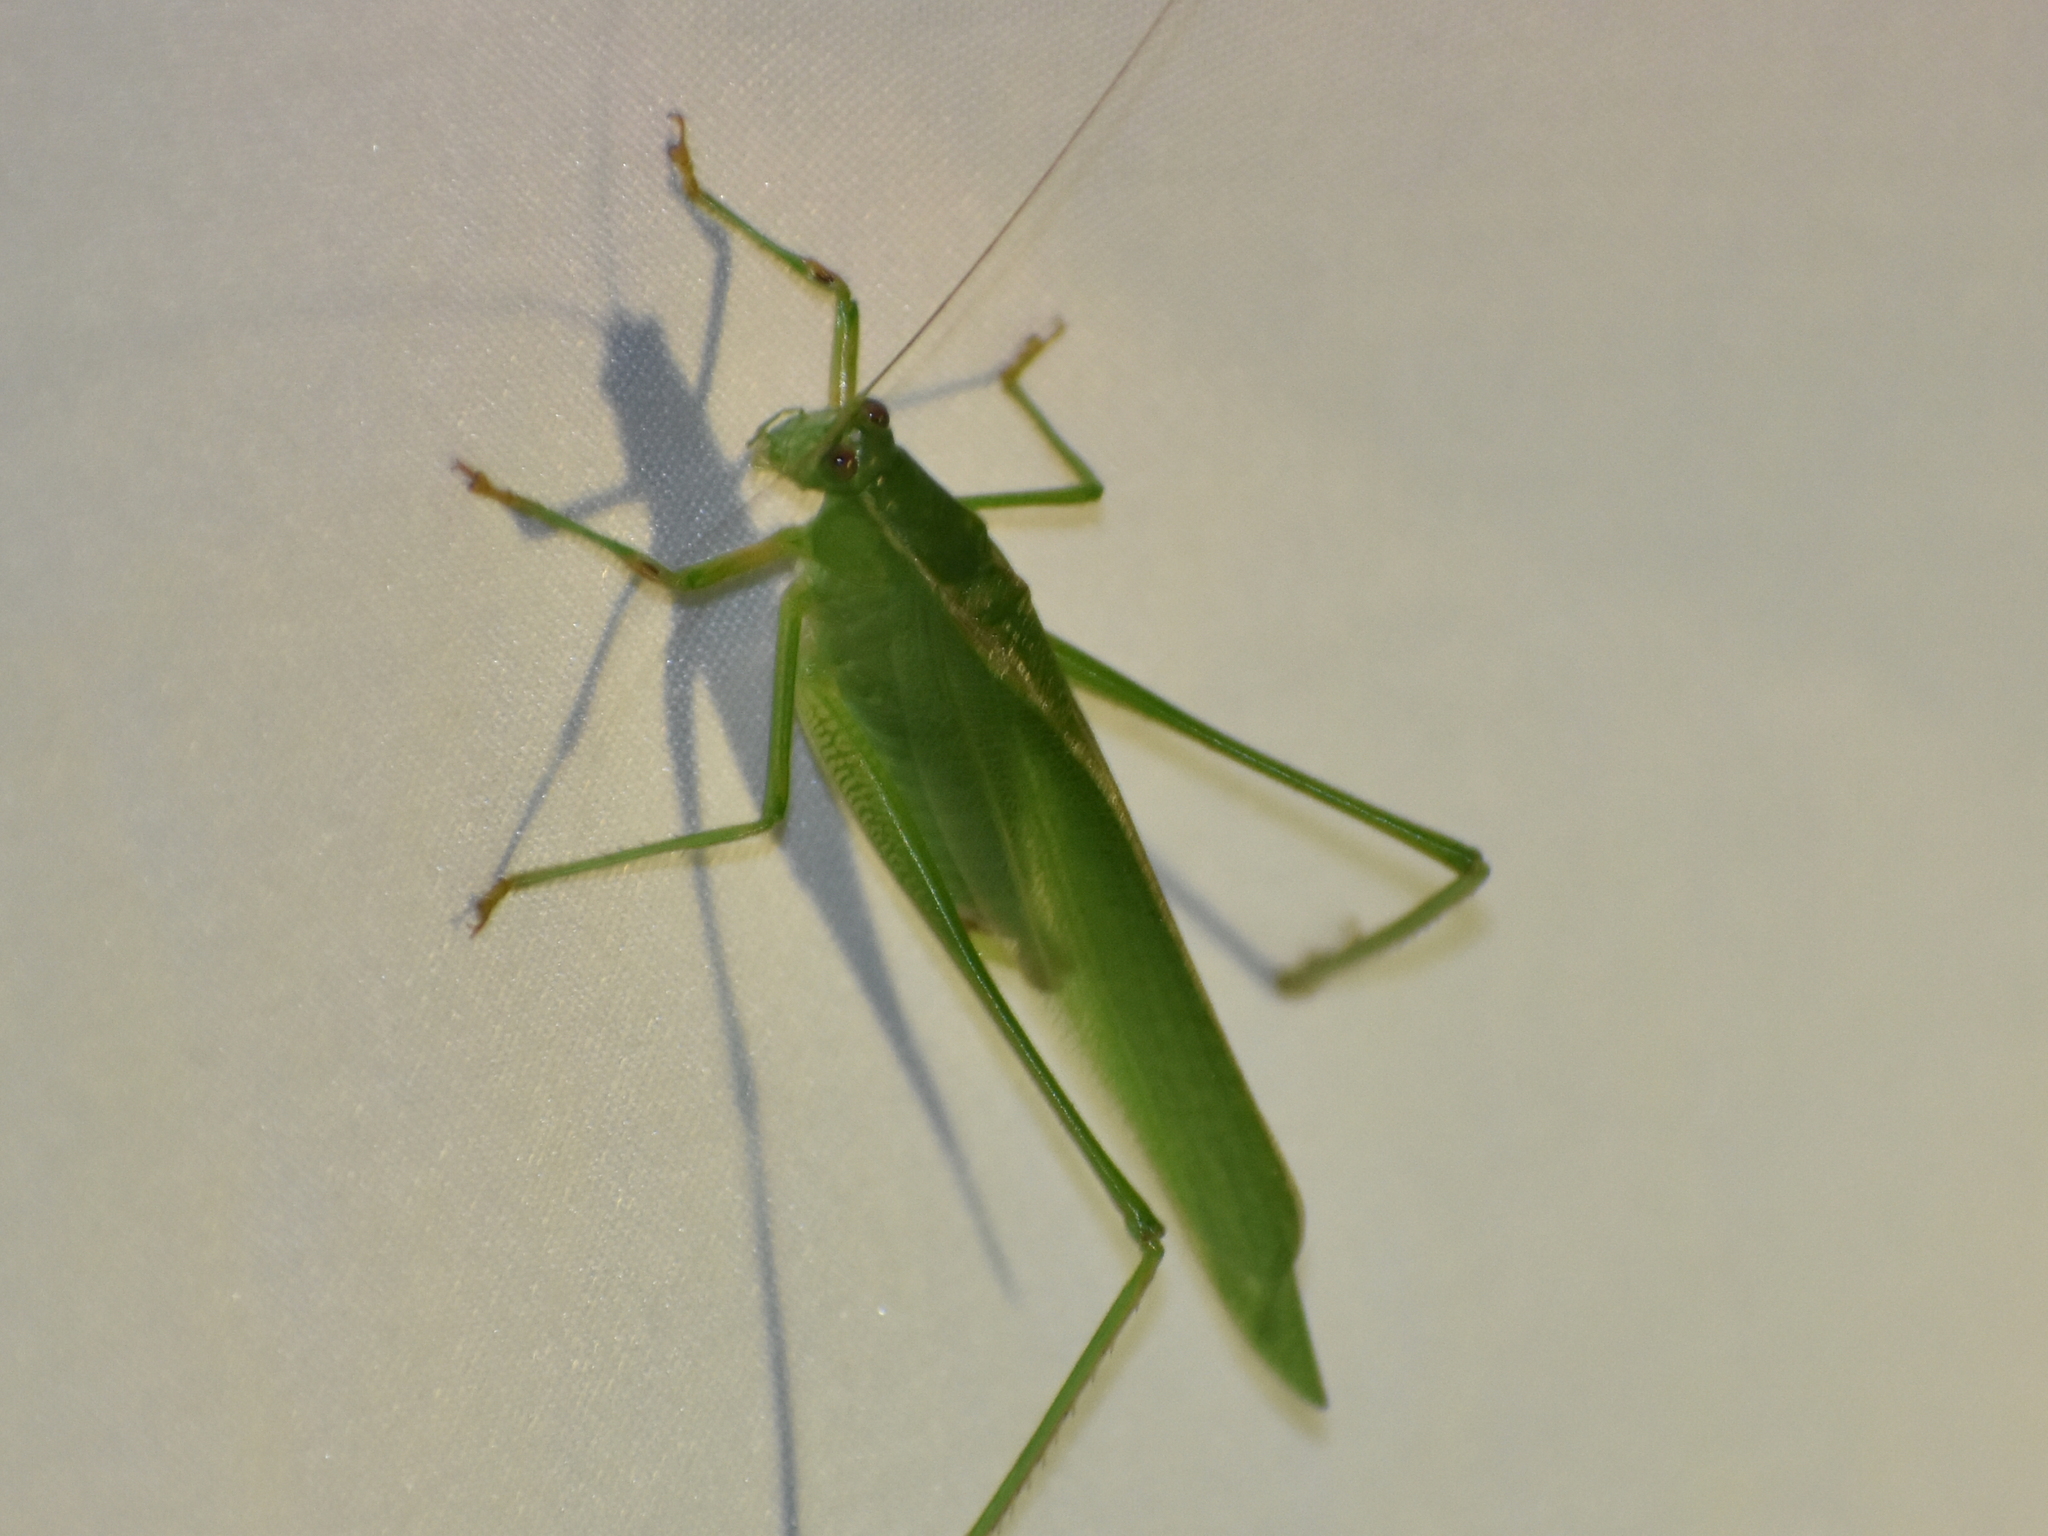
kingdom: Animalia
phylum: Arthropoda
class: Insecta
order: Orthoptera
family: Tettigoniidae
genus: Scudderia
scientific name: Scudderia furcata
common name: Fork-tailed bush katydid
